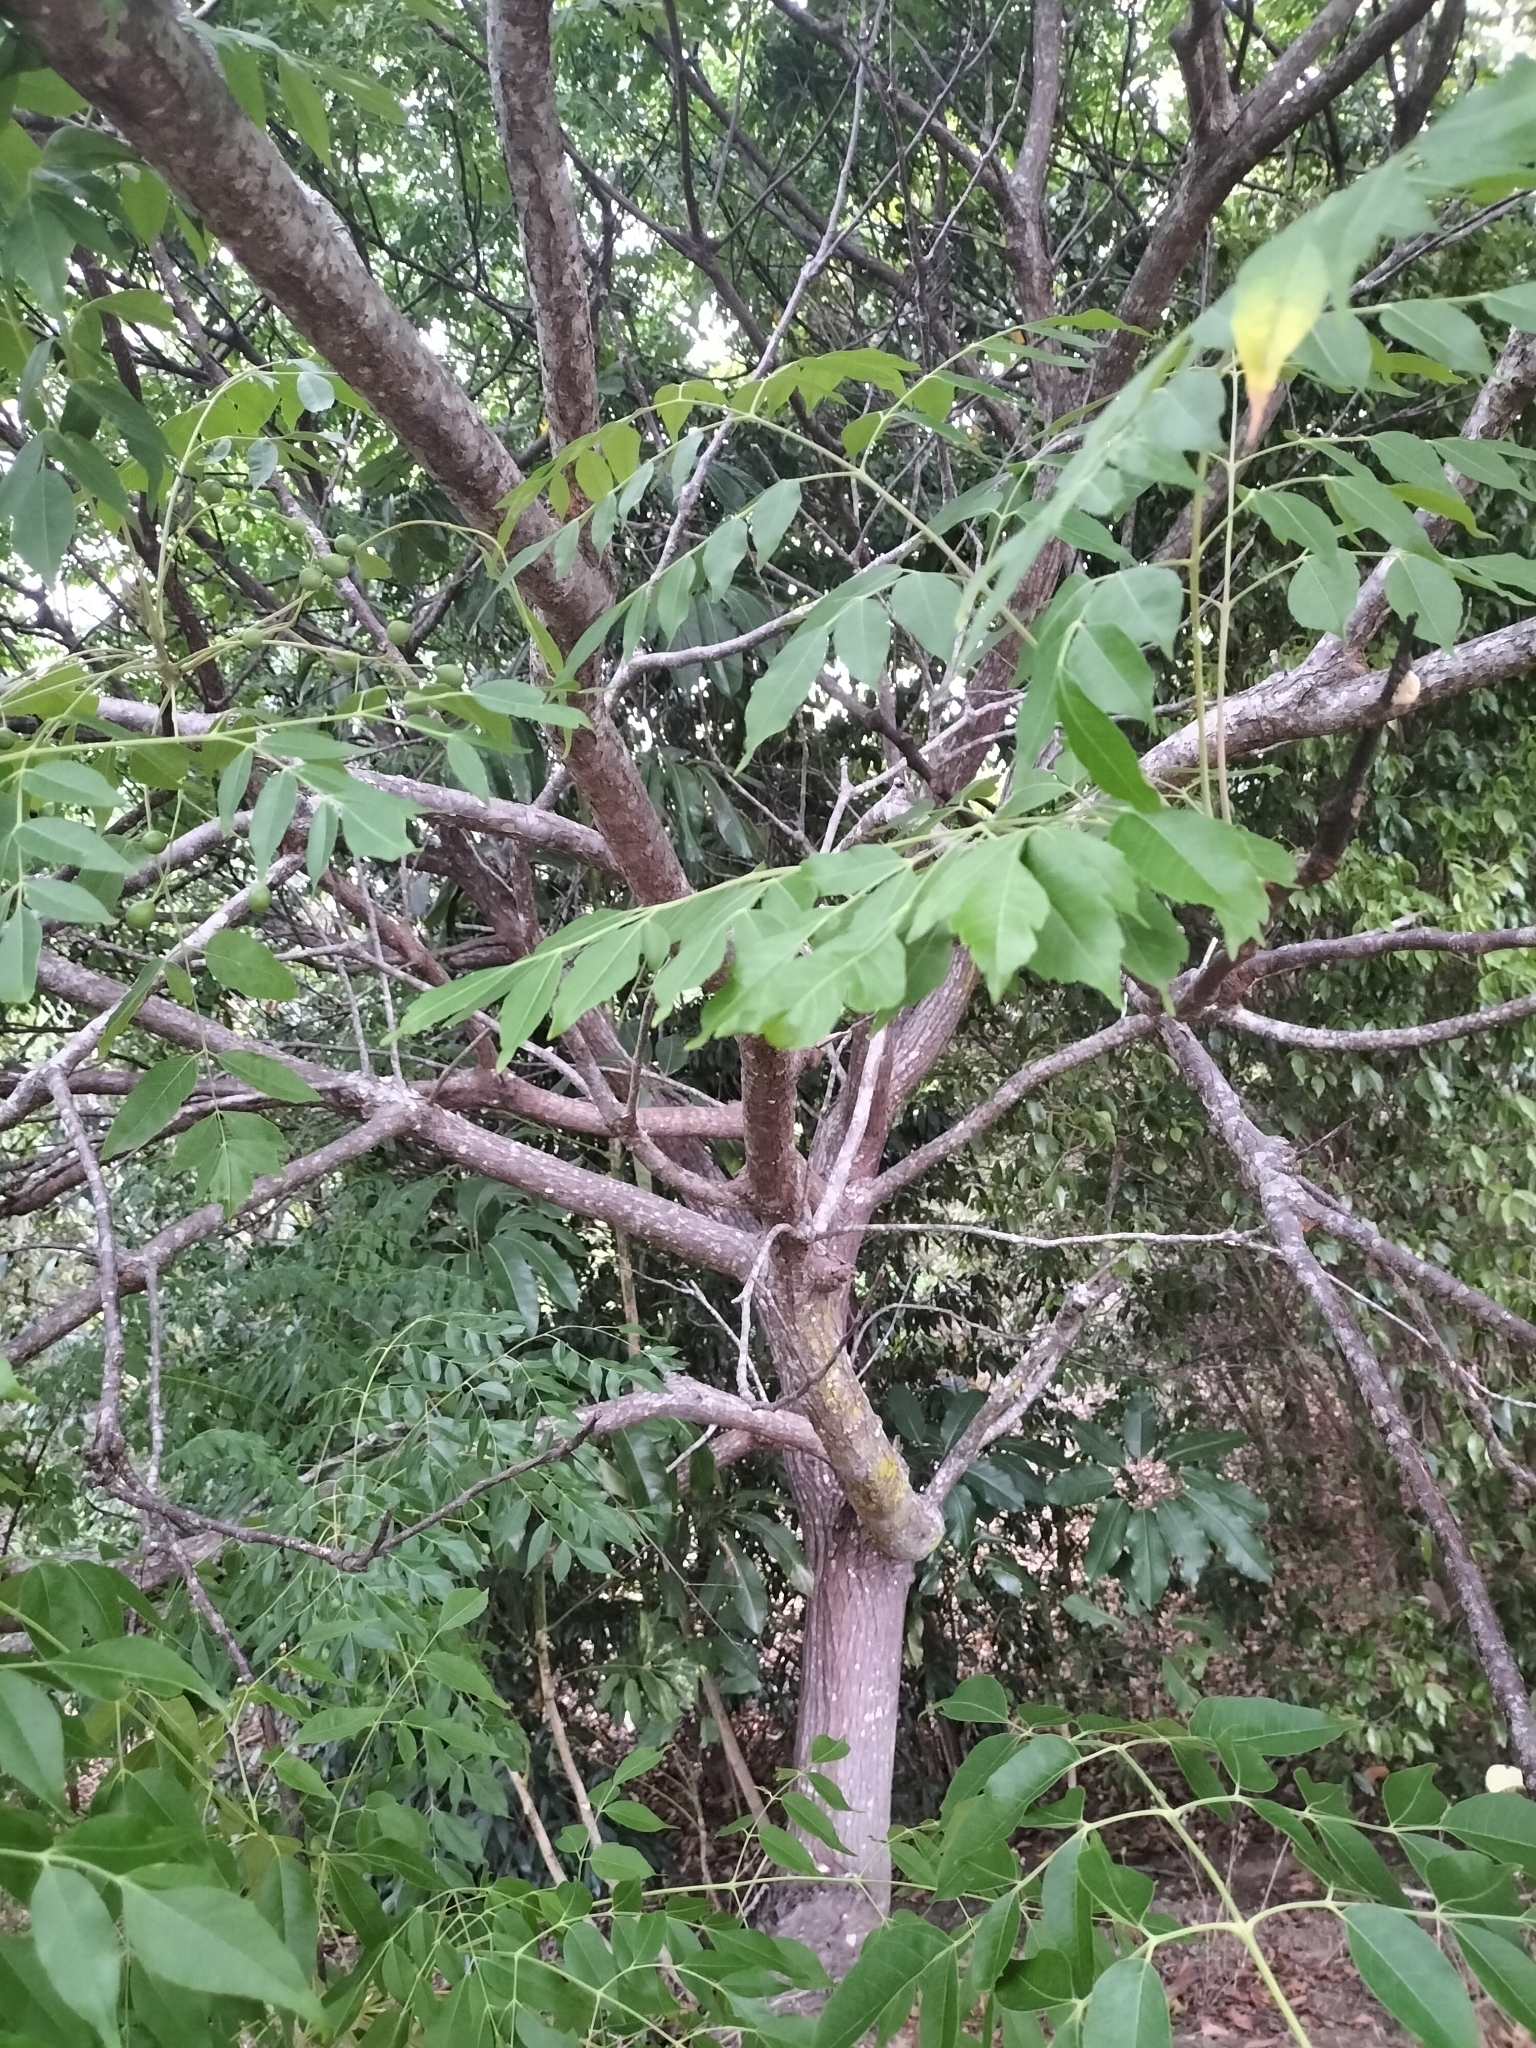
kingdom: Plantae
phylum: Tracheophyta
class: Magnoliopsida
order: Sapindales
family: Meliaceae
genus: Melia
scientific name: Melia azedarach
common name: Chinaberrytree
